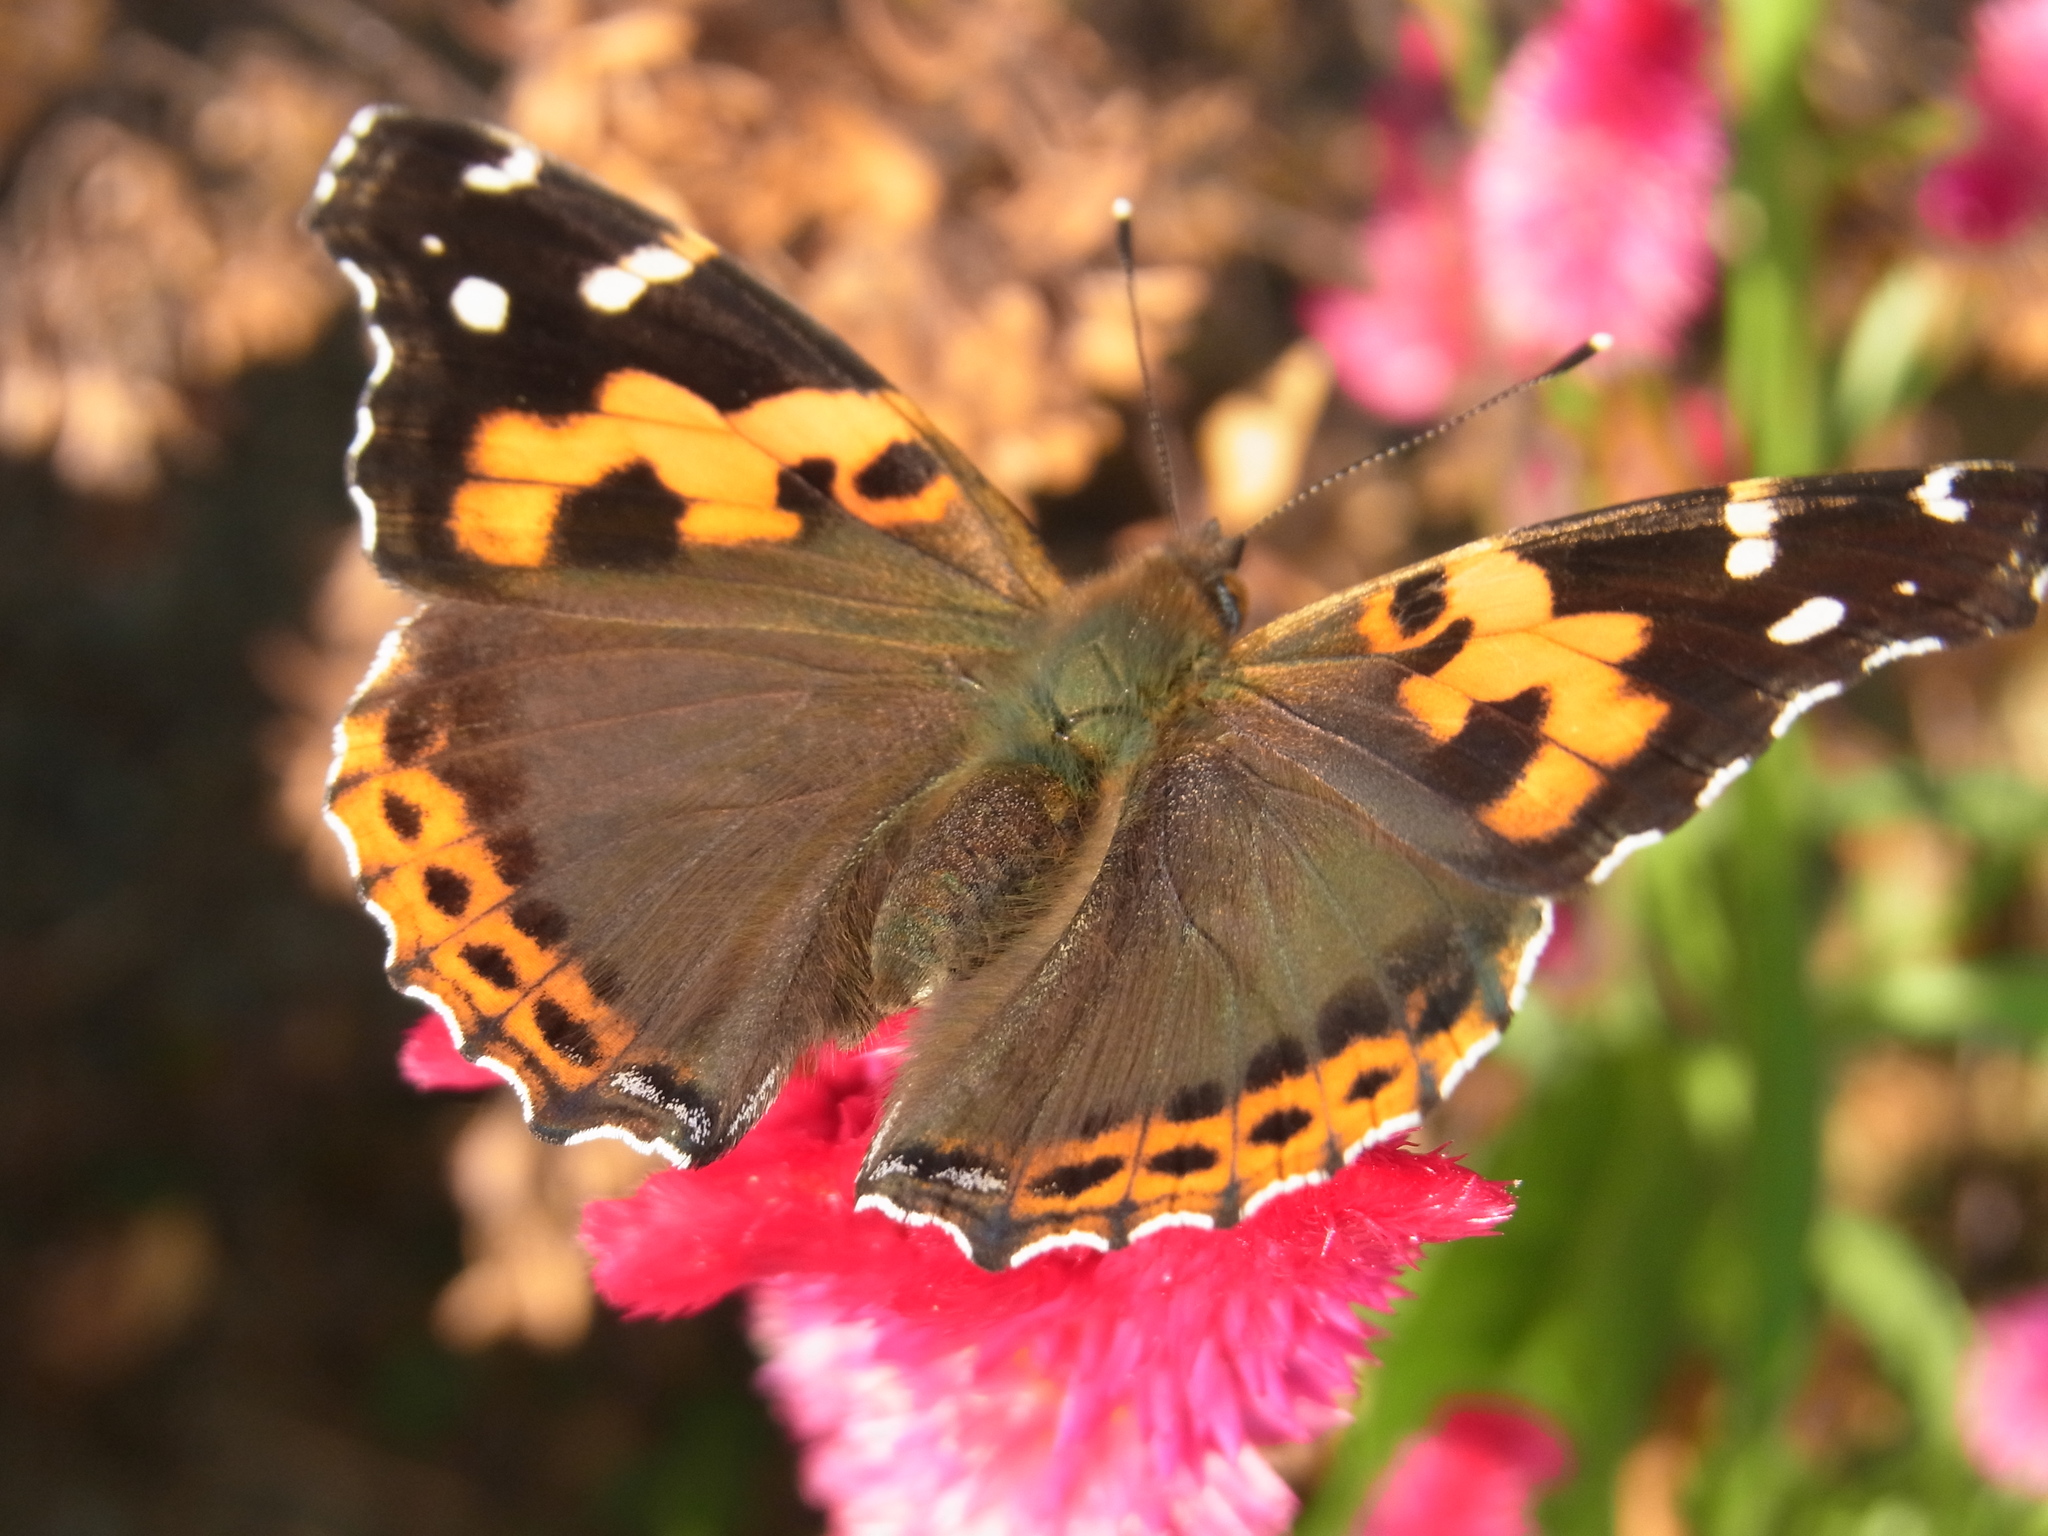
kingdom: Animalia
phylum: Arthropoda
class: Insecta
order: Lepidoptera
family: Nymphalidae
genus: Vanessa
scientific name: Vanessa indica
